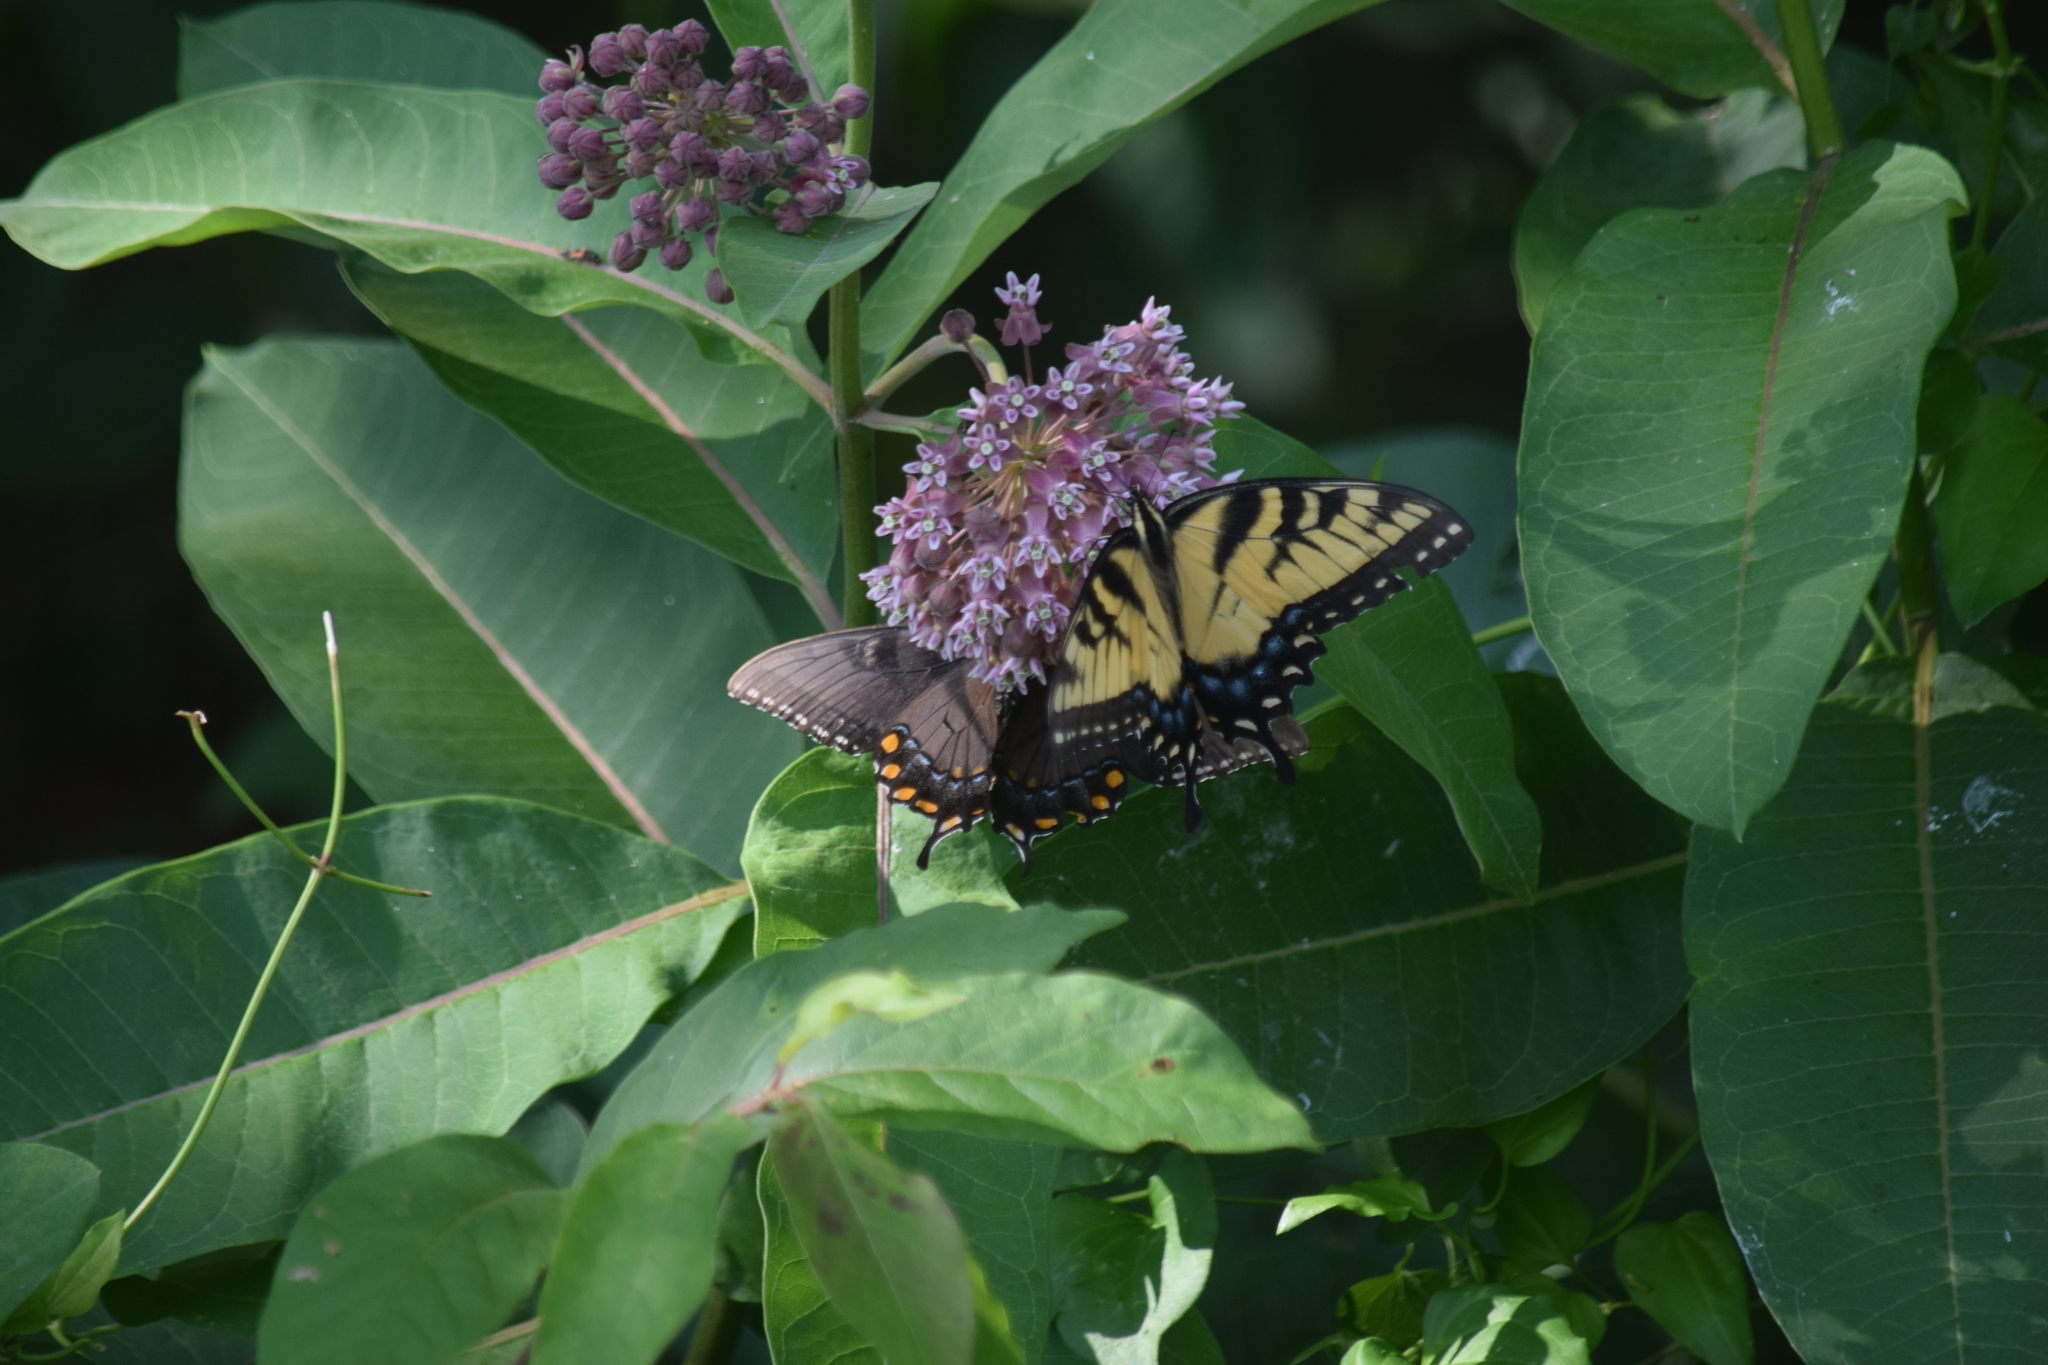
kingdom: Animalia
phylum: Arthropoda
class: Insecta
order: Lepidoptera
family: Papilionidae
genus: Papilio
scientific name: Papilio glaucus
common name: Tiger swallowtail
